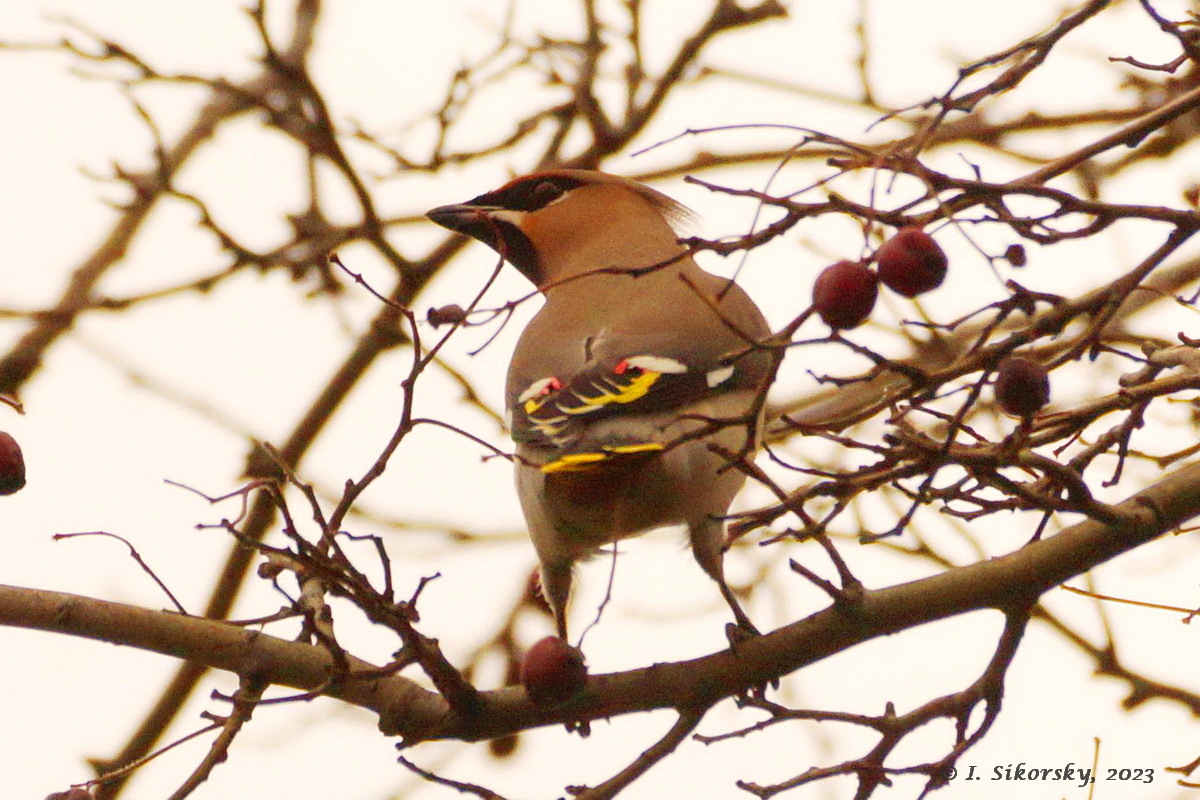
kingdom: Animalia
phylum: Chordata
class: Aves
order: Passeriformes
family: Bombycillidae
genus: Bombycilla
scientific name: Bombycilla garrulus
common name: Bohemian waxwing
